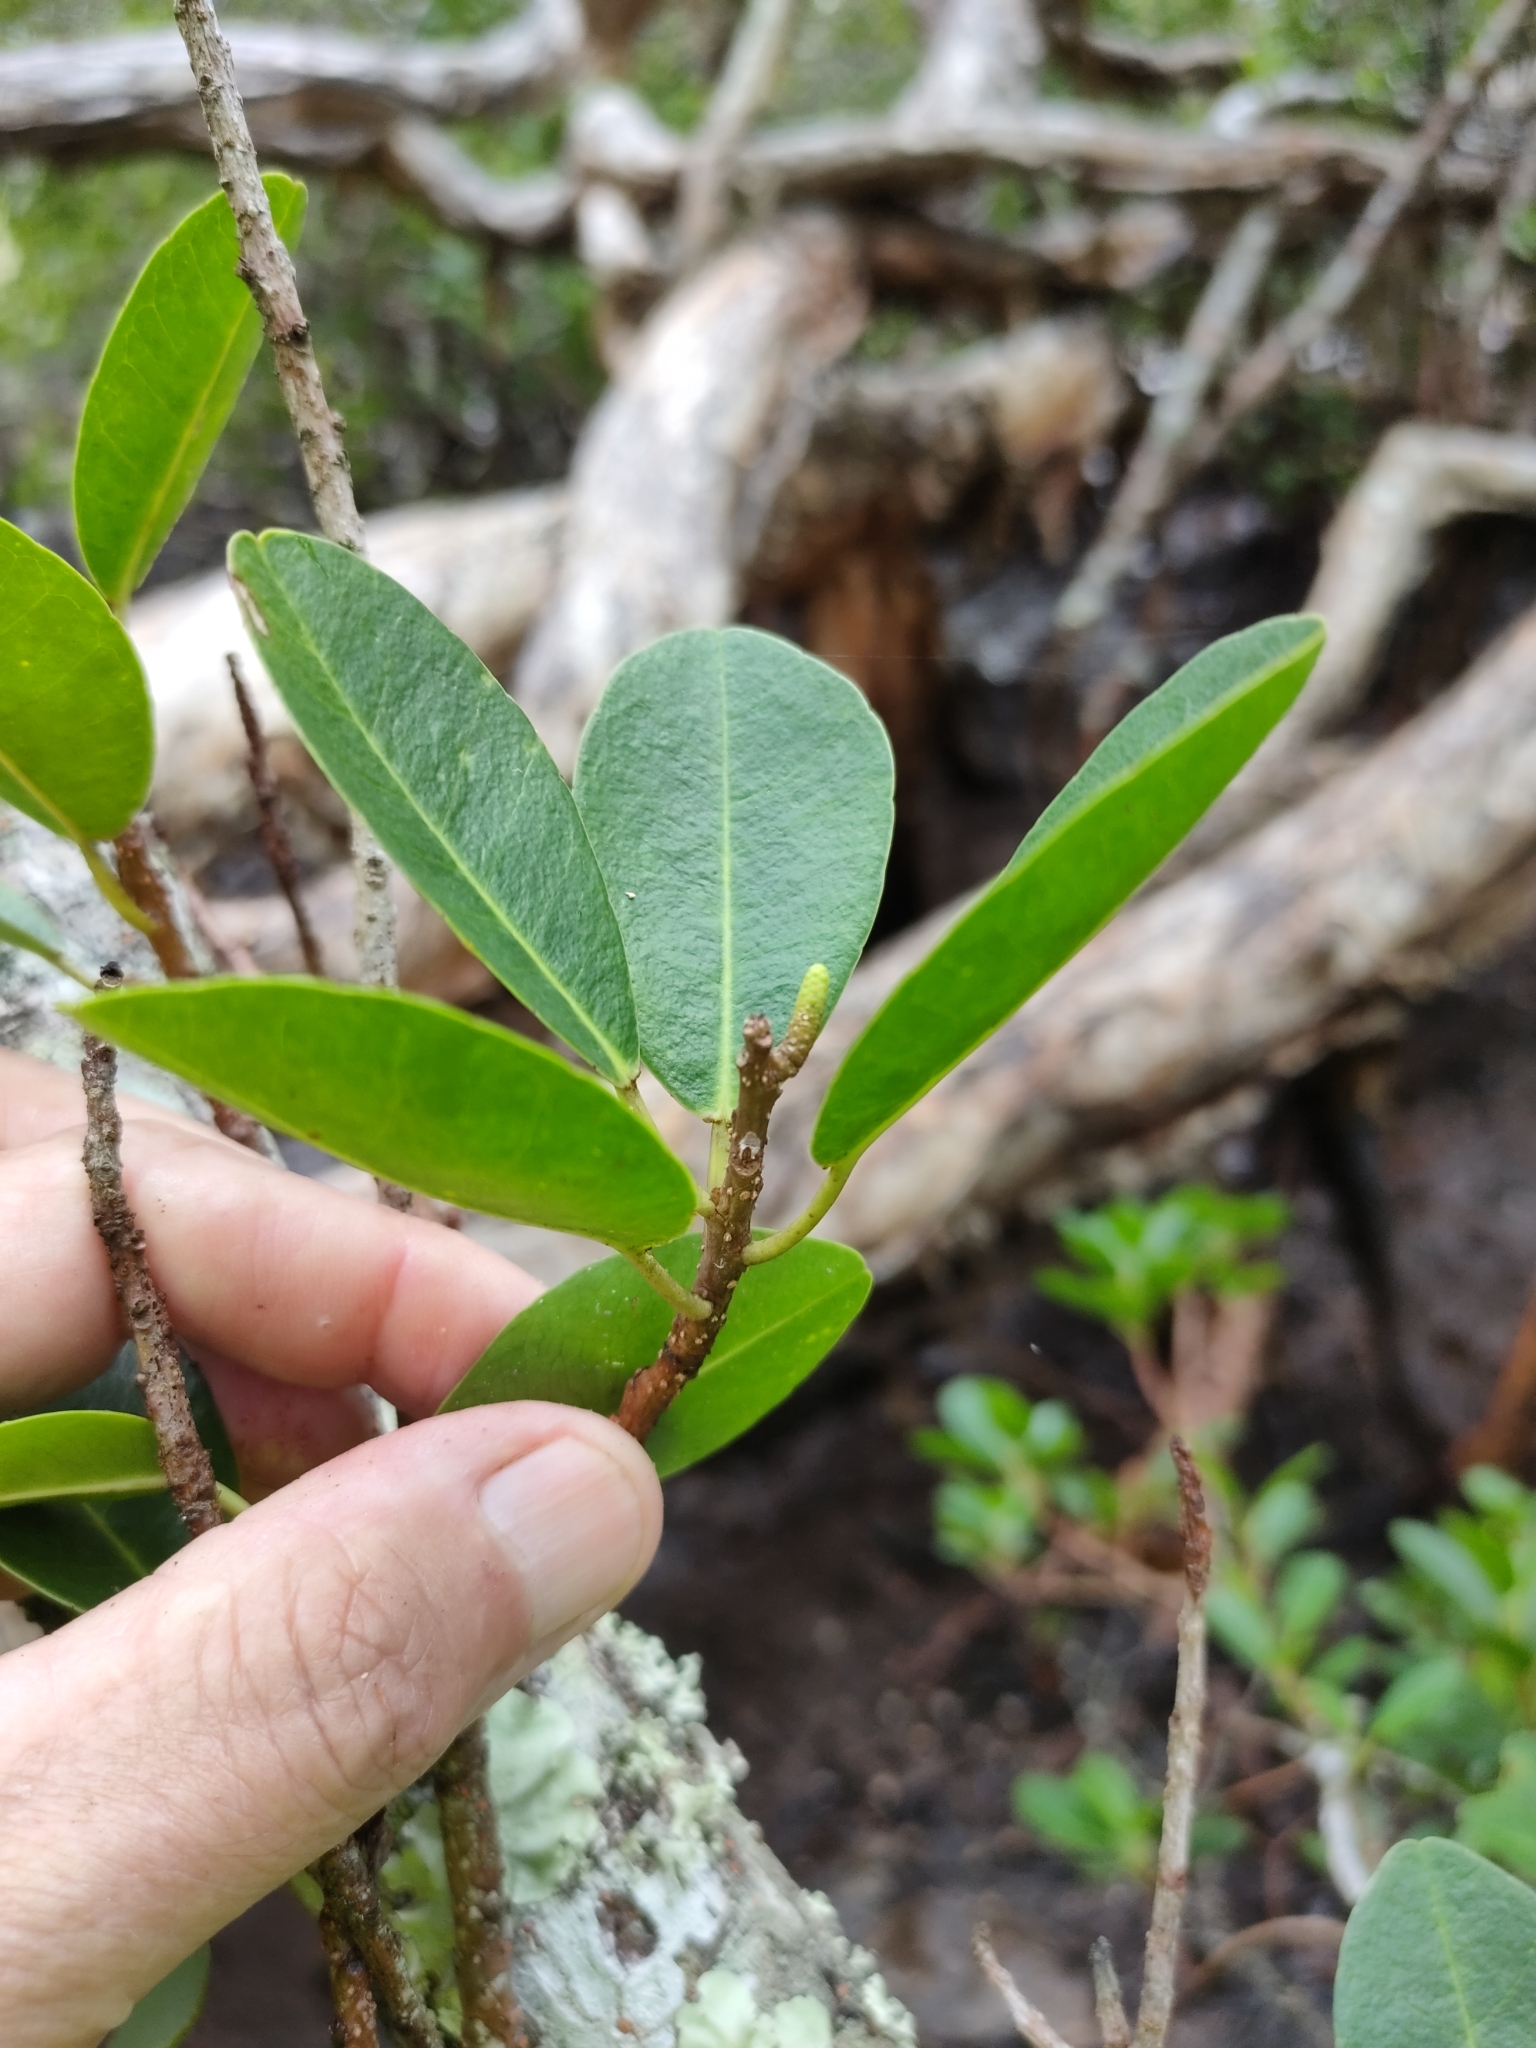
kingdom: Plantae
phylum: Tracheophyta
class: Magnoliopsida
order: Malpighiales
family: Euphorbiaceae
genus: Excoecaria
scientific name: Excoecaria agallocha
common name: River poisontree
